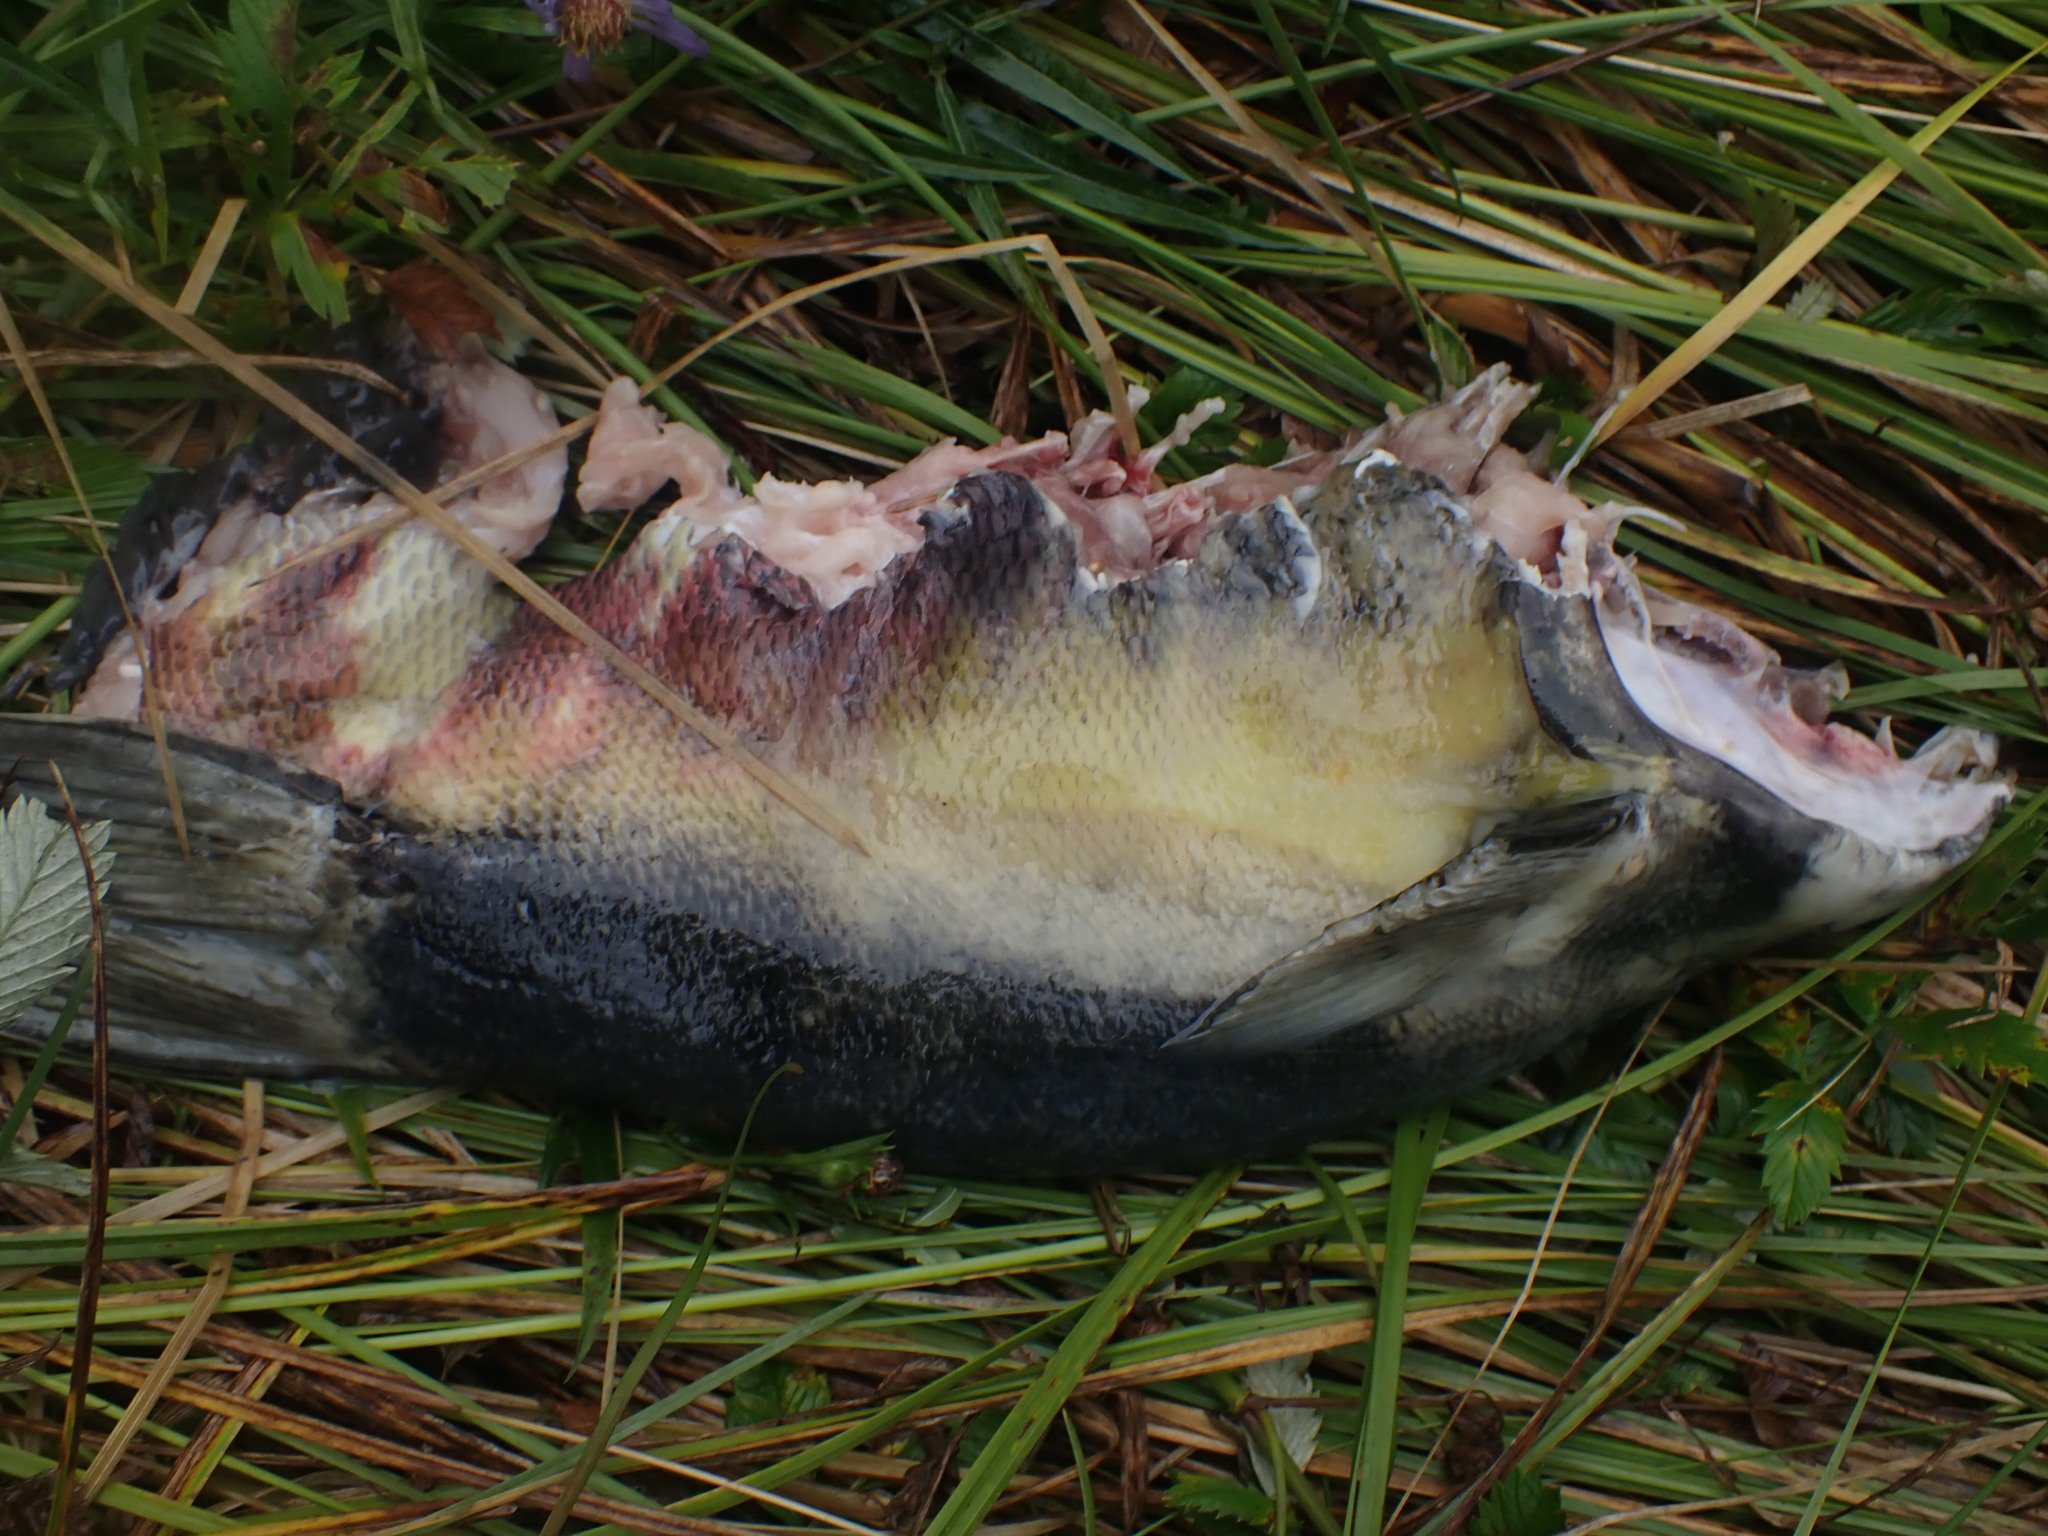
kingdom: Animalia
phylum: Chordata
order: Salmoniformes
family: Salmonidae
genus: Oncorhynchus
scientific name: Oncorhynchus keta
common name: Chum salmon
